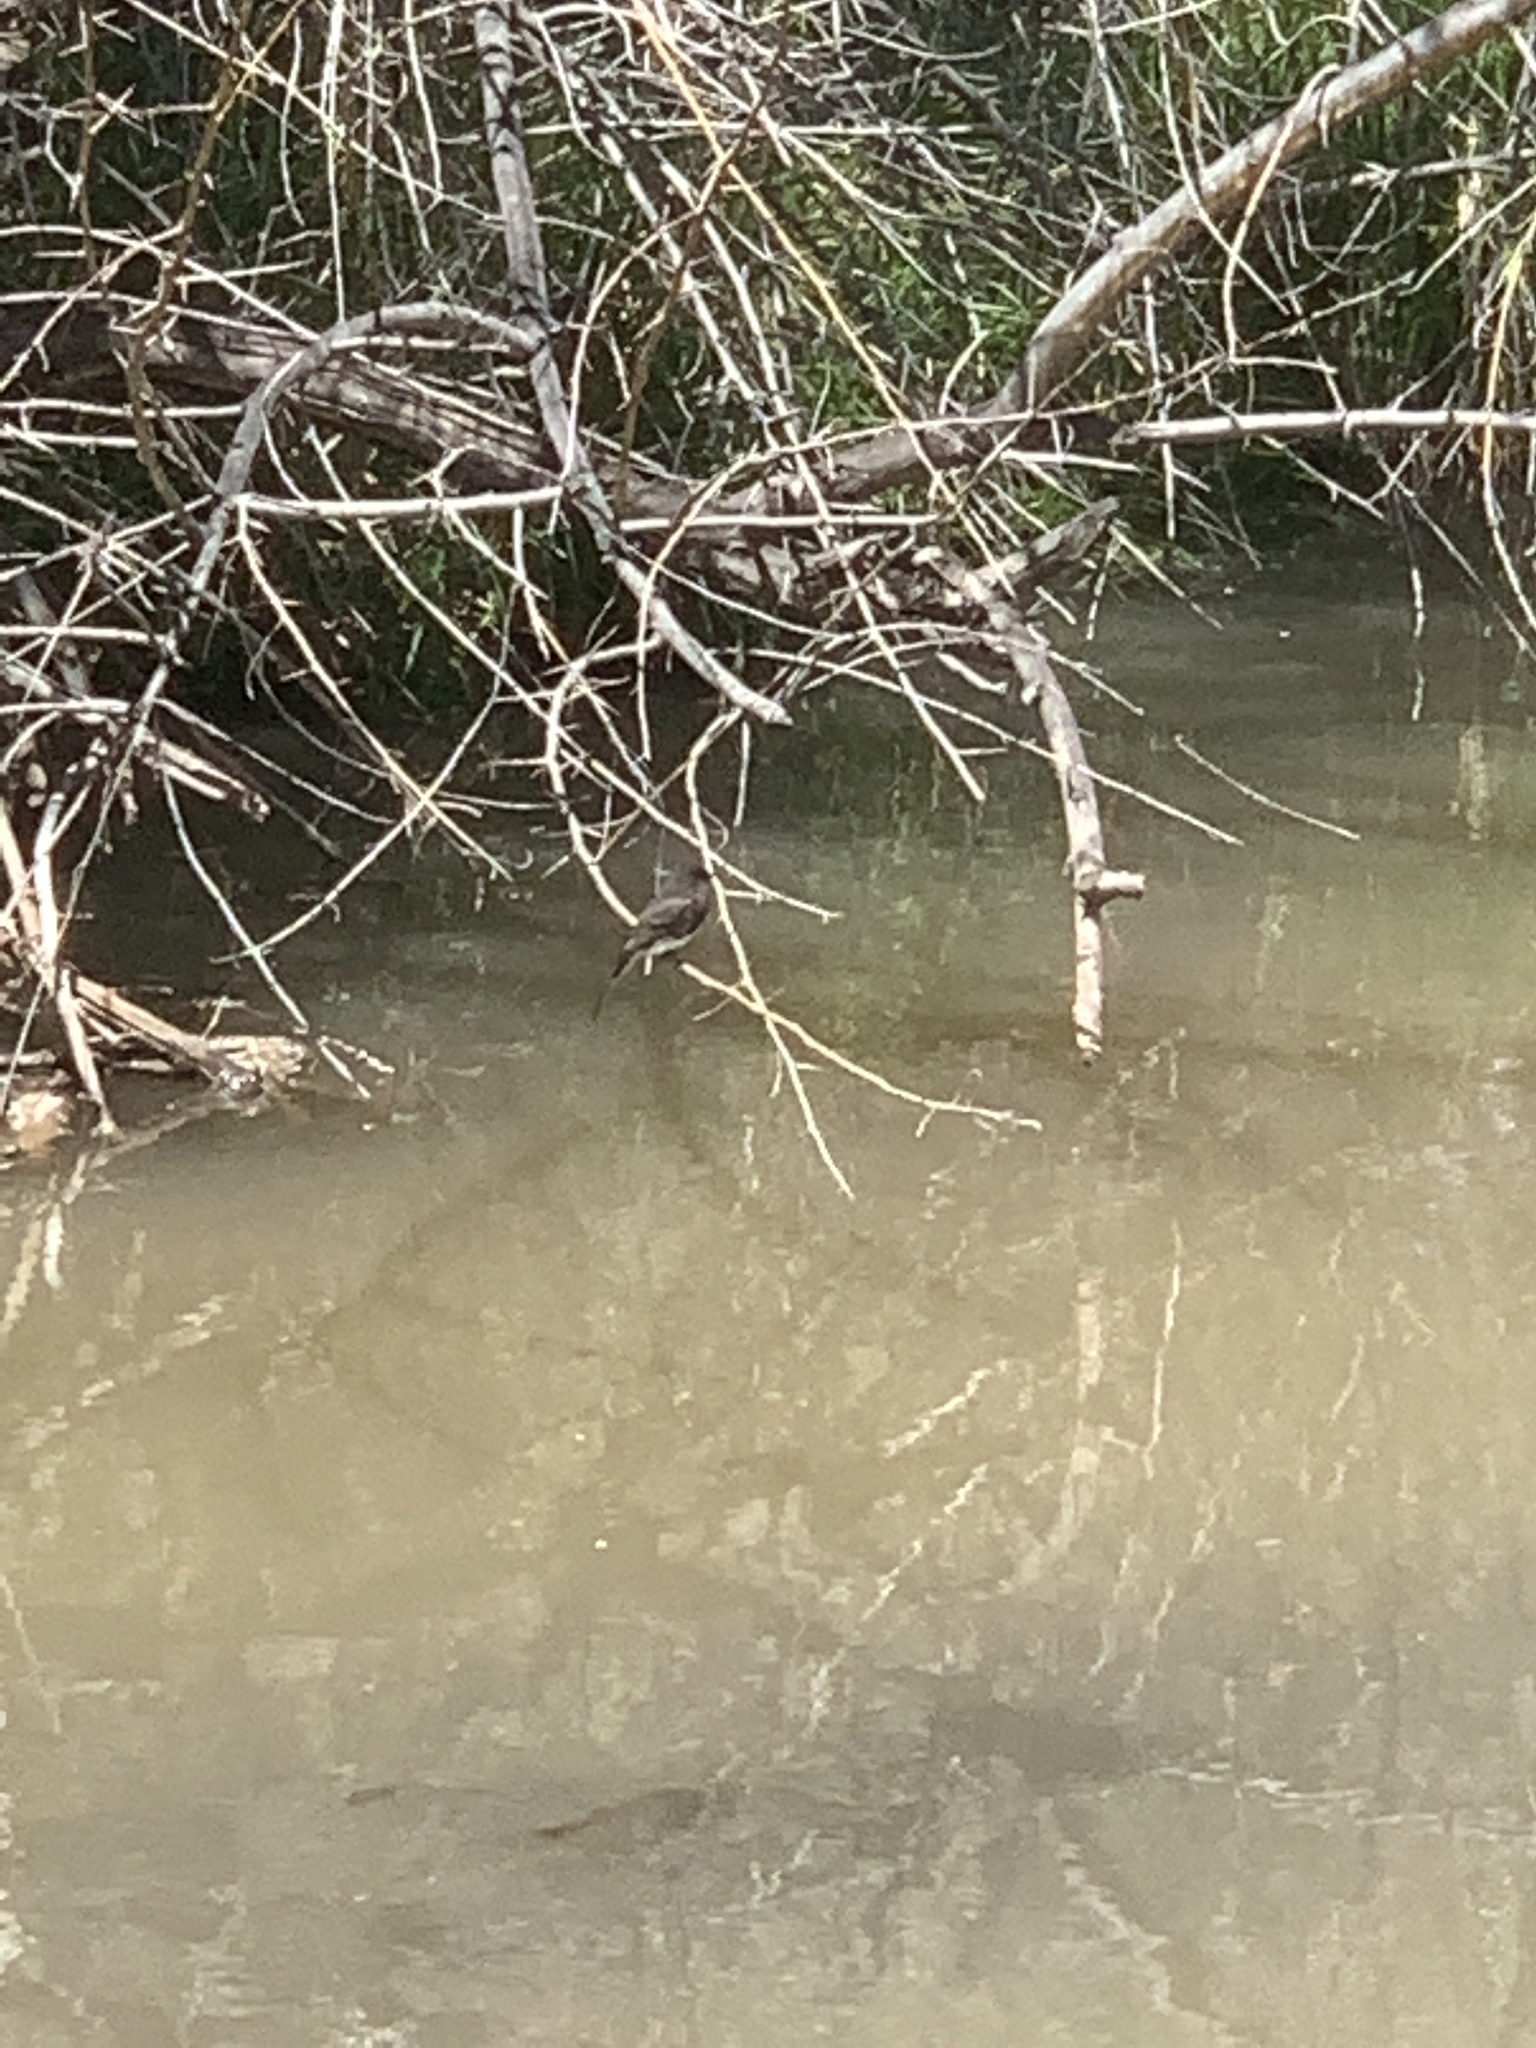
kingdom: Animalia
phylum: Chordata
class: Aves
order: Passeriformes
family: Tyrannidae
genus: Sayornis
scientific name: Sayornis nigricans
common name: Black phoebe
